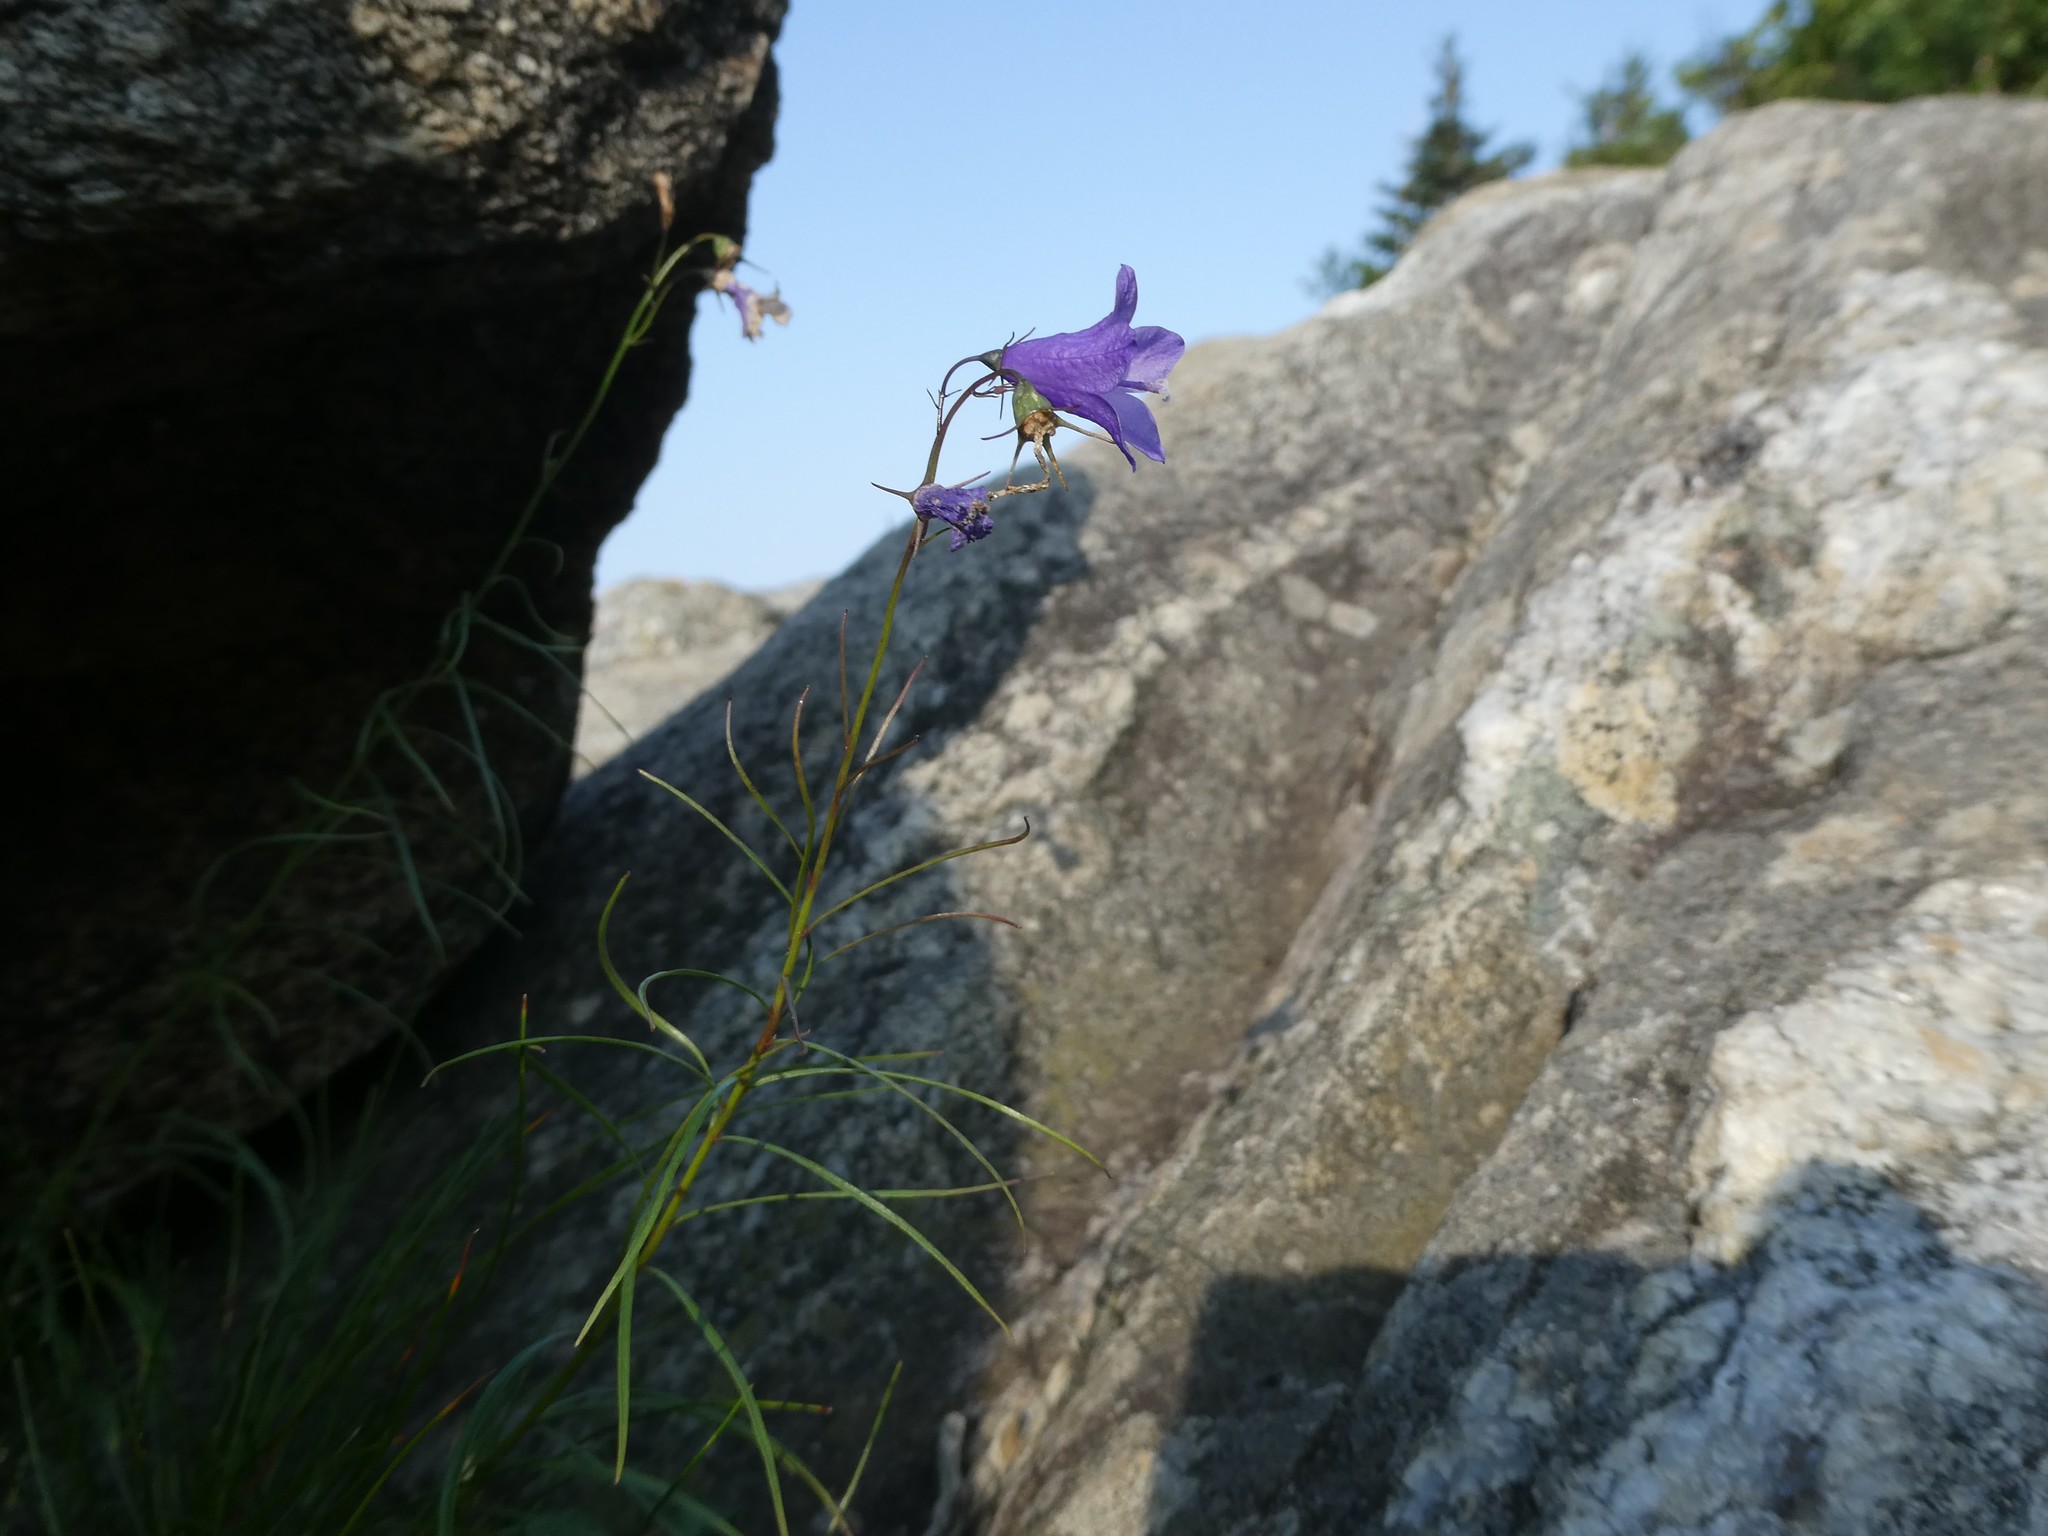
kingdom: Plantae
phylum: Tracheophyta
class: Magnoliopsida
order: Asterales
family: Campanulaceae
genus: Campanula
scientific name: Campanula intercedens
